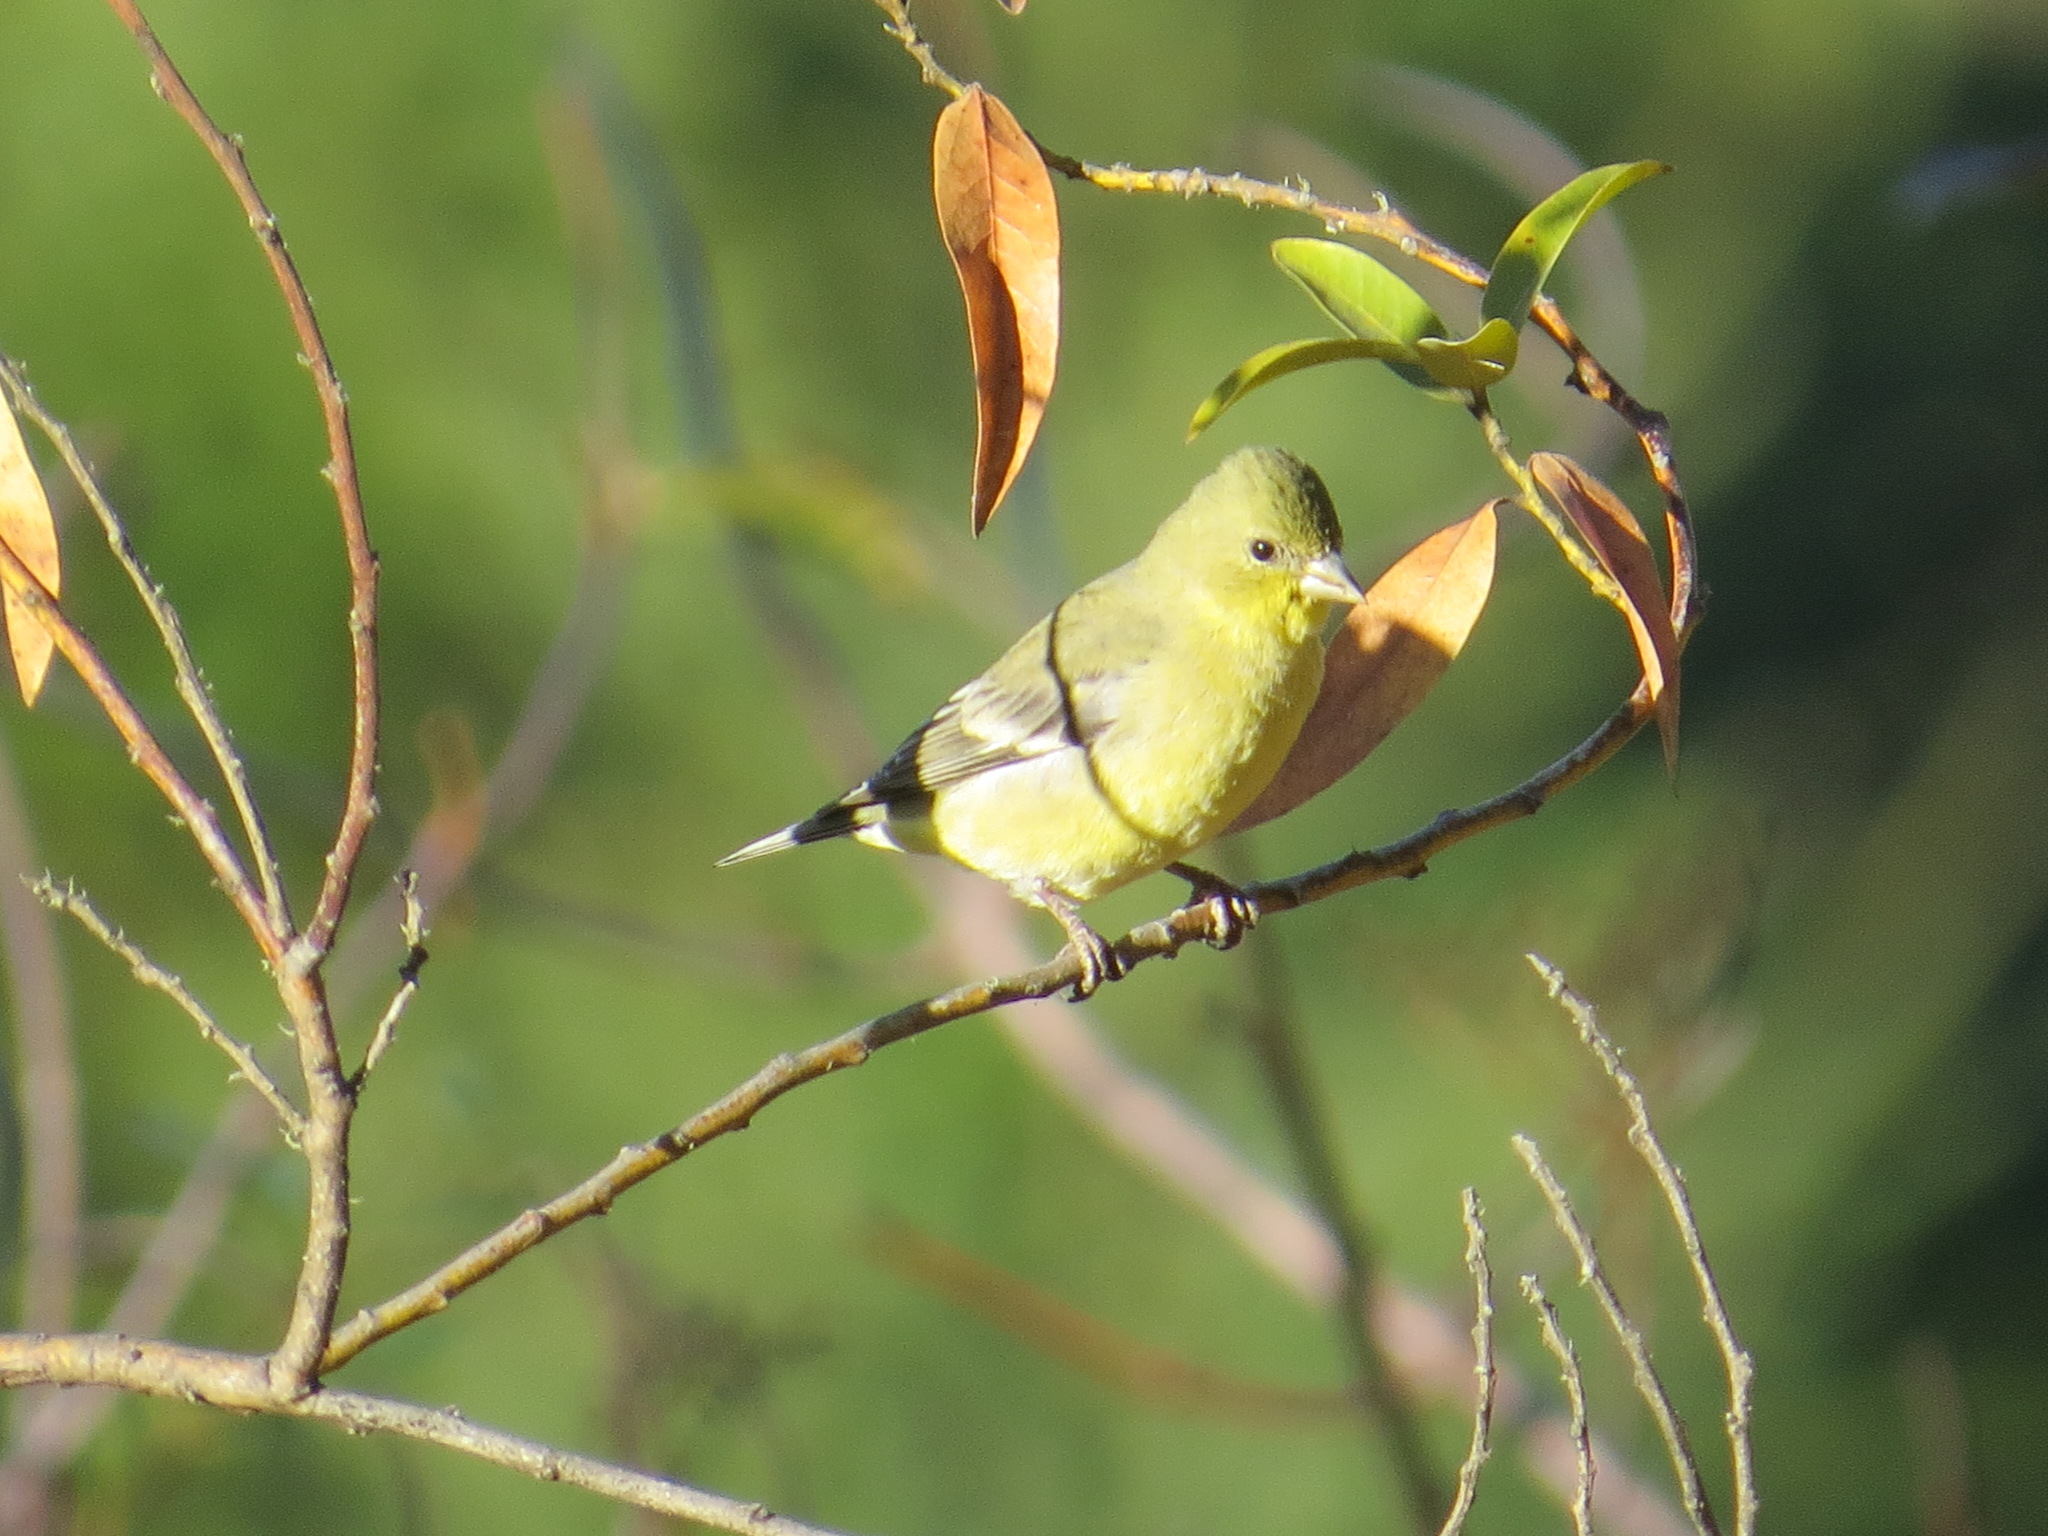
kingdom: Animalia
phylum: Chordata
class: Aves
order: Passeriformes
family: Fringillidae
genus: Spinus
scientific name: Spinus psaltria
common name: Lesser goldfinch
